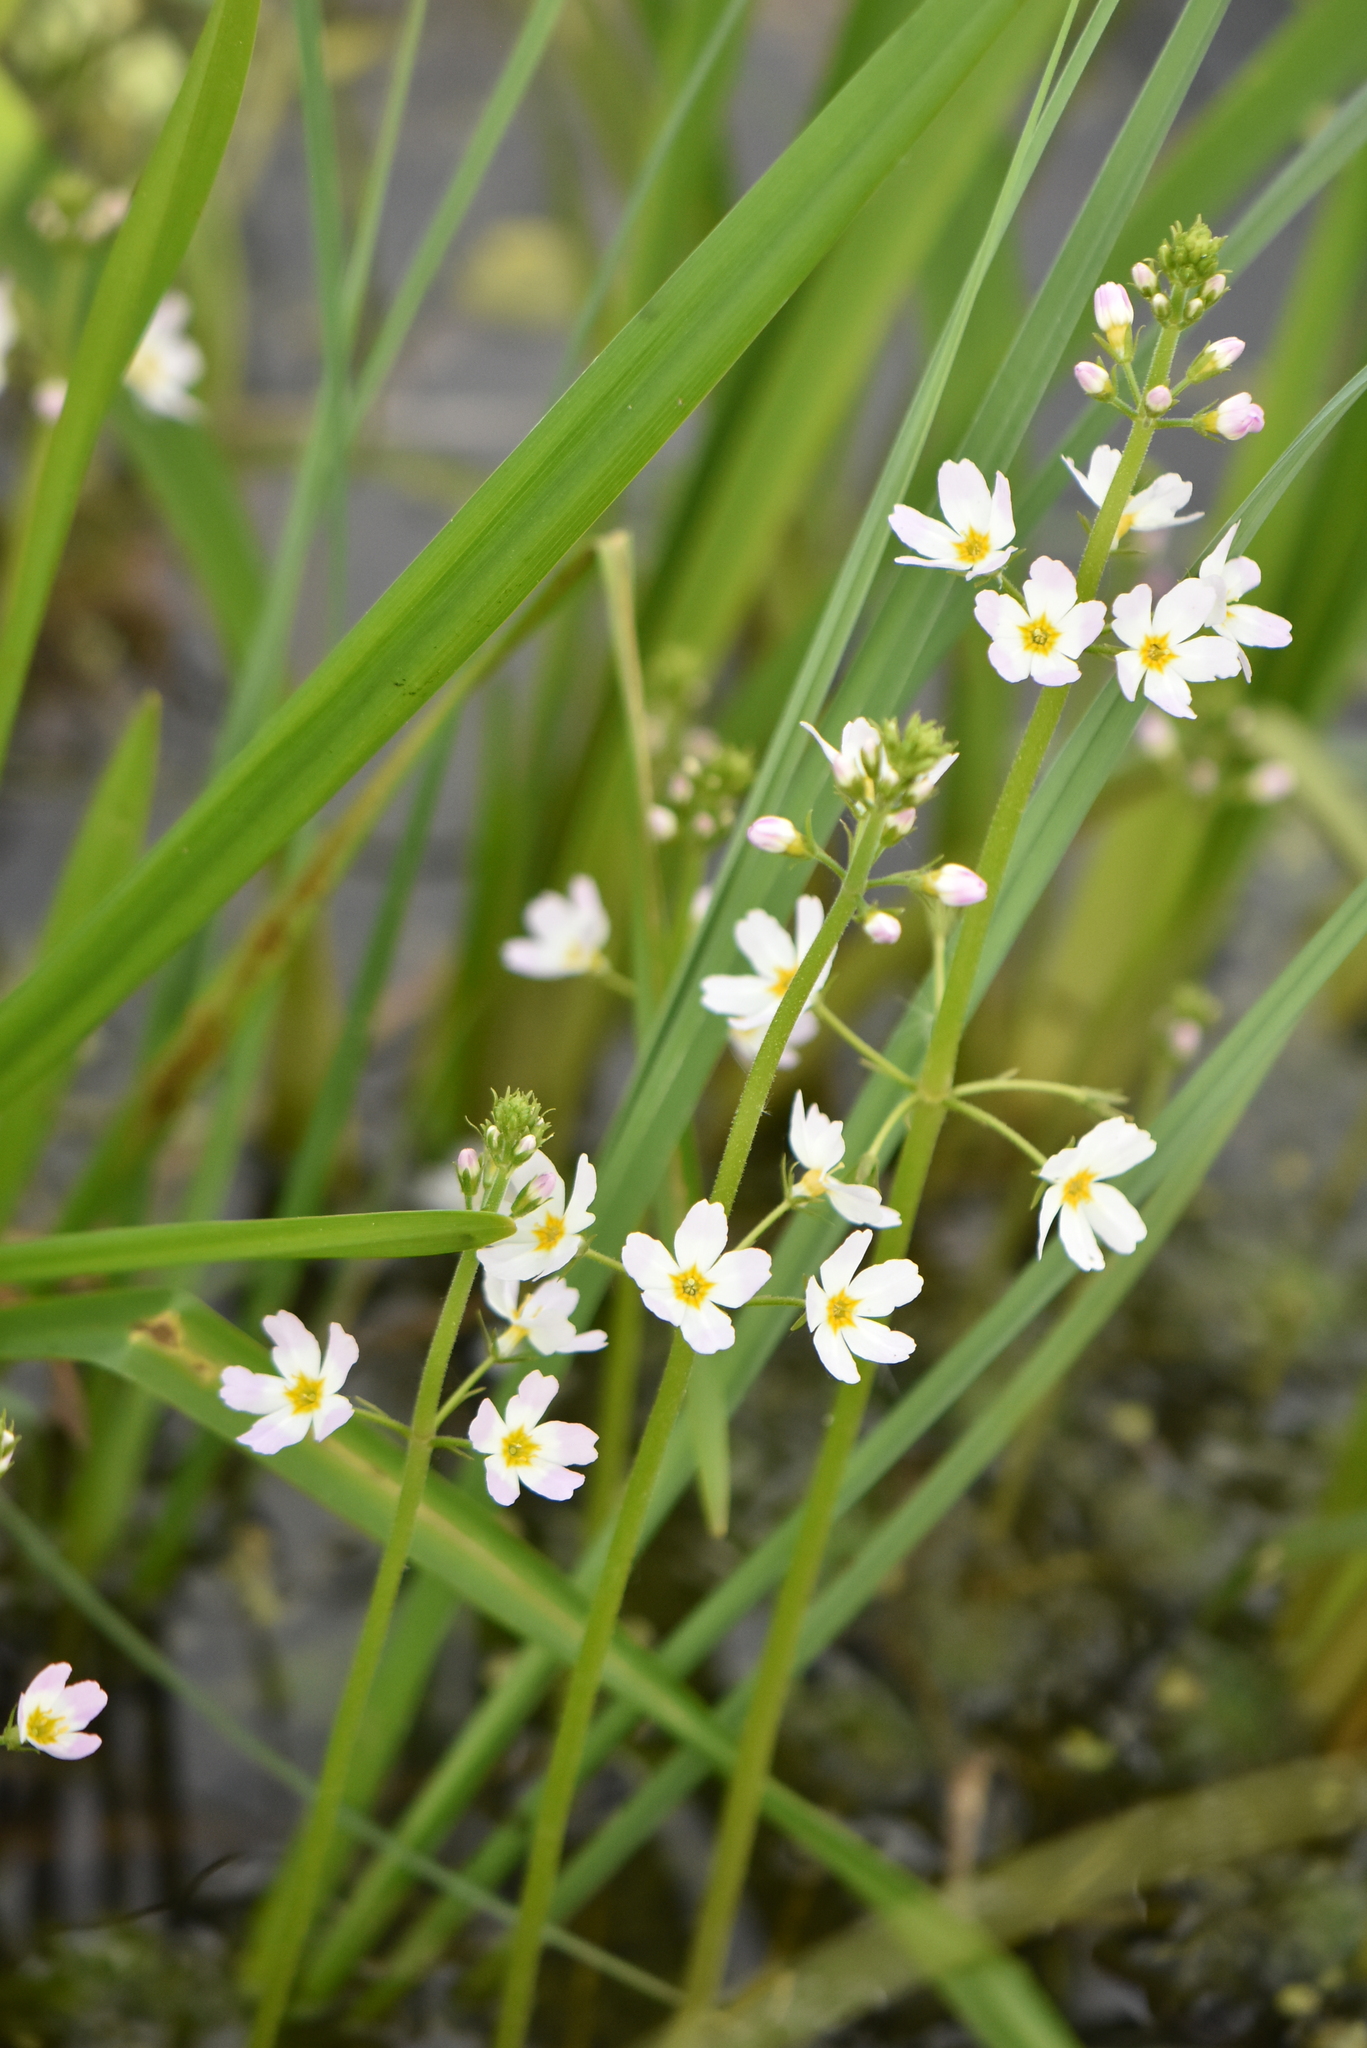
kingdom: Plantae
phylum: Tracheophyta
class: Magnoliopsida
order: Ericales
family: Primulaceae
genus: Hottonia
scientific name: Hottonia palustris
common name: Water-violet
